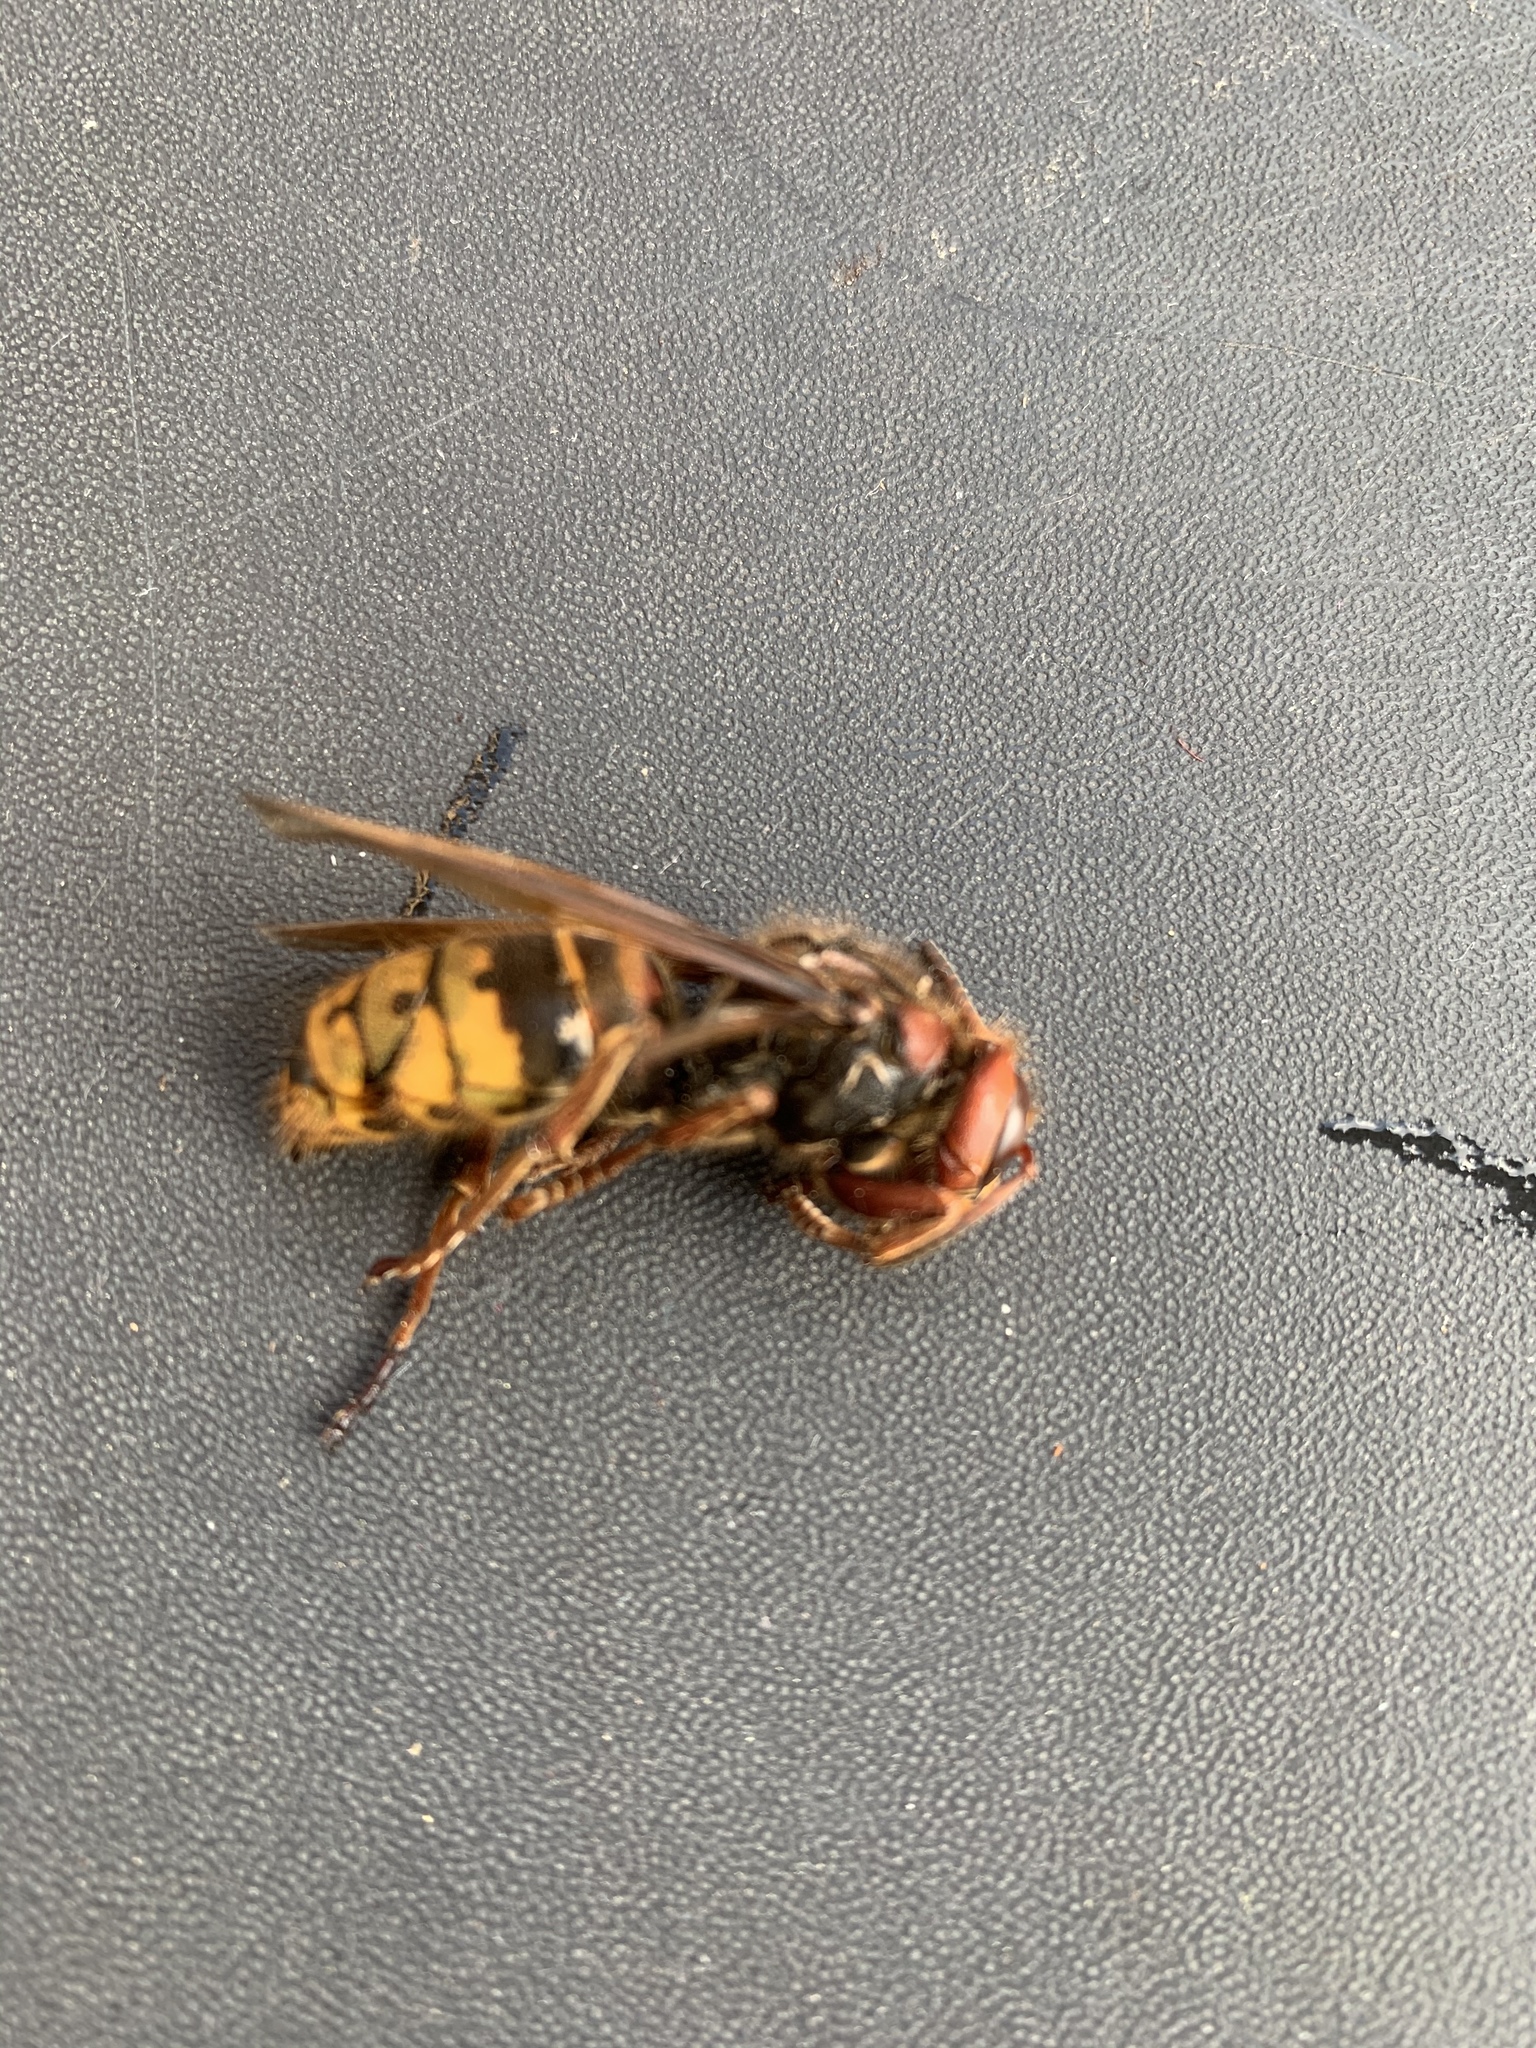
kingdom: Animalia
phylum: Arthropoda
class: Insecta
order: Hymenoptera
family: Vespidae
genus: Vespa
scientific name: Vespa crabro
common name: Hornet
